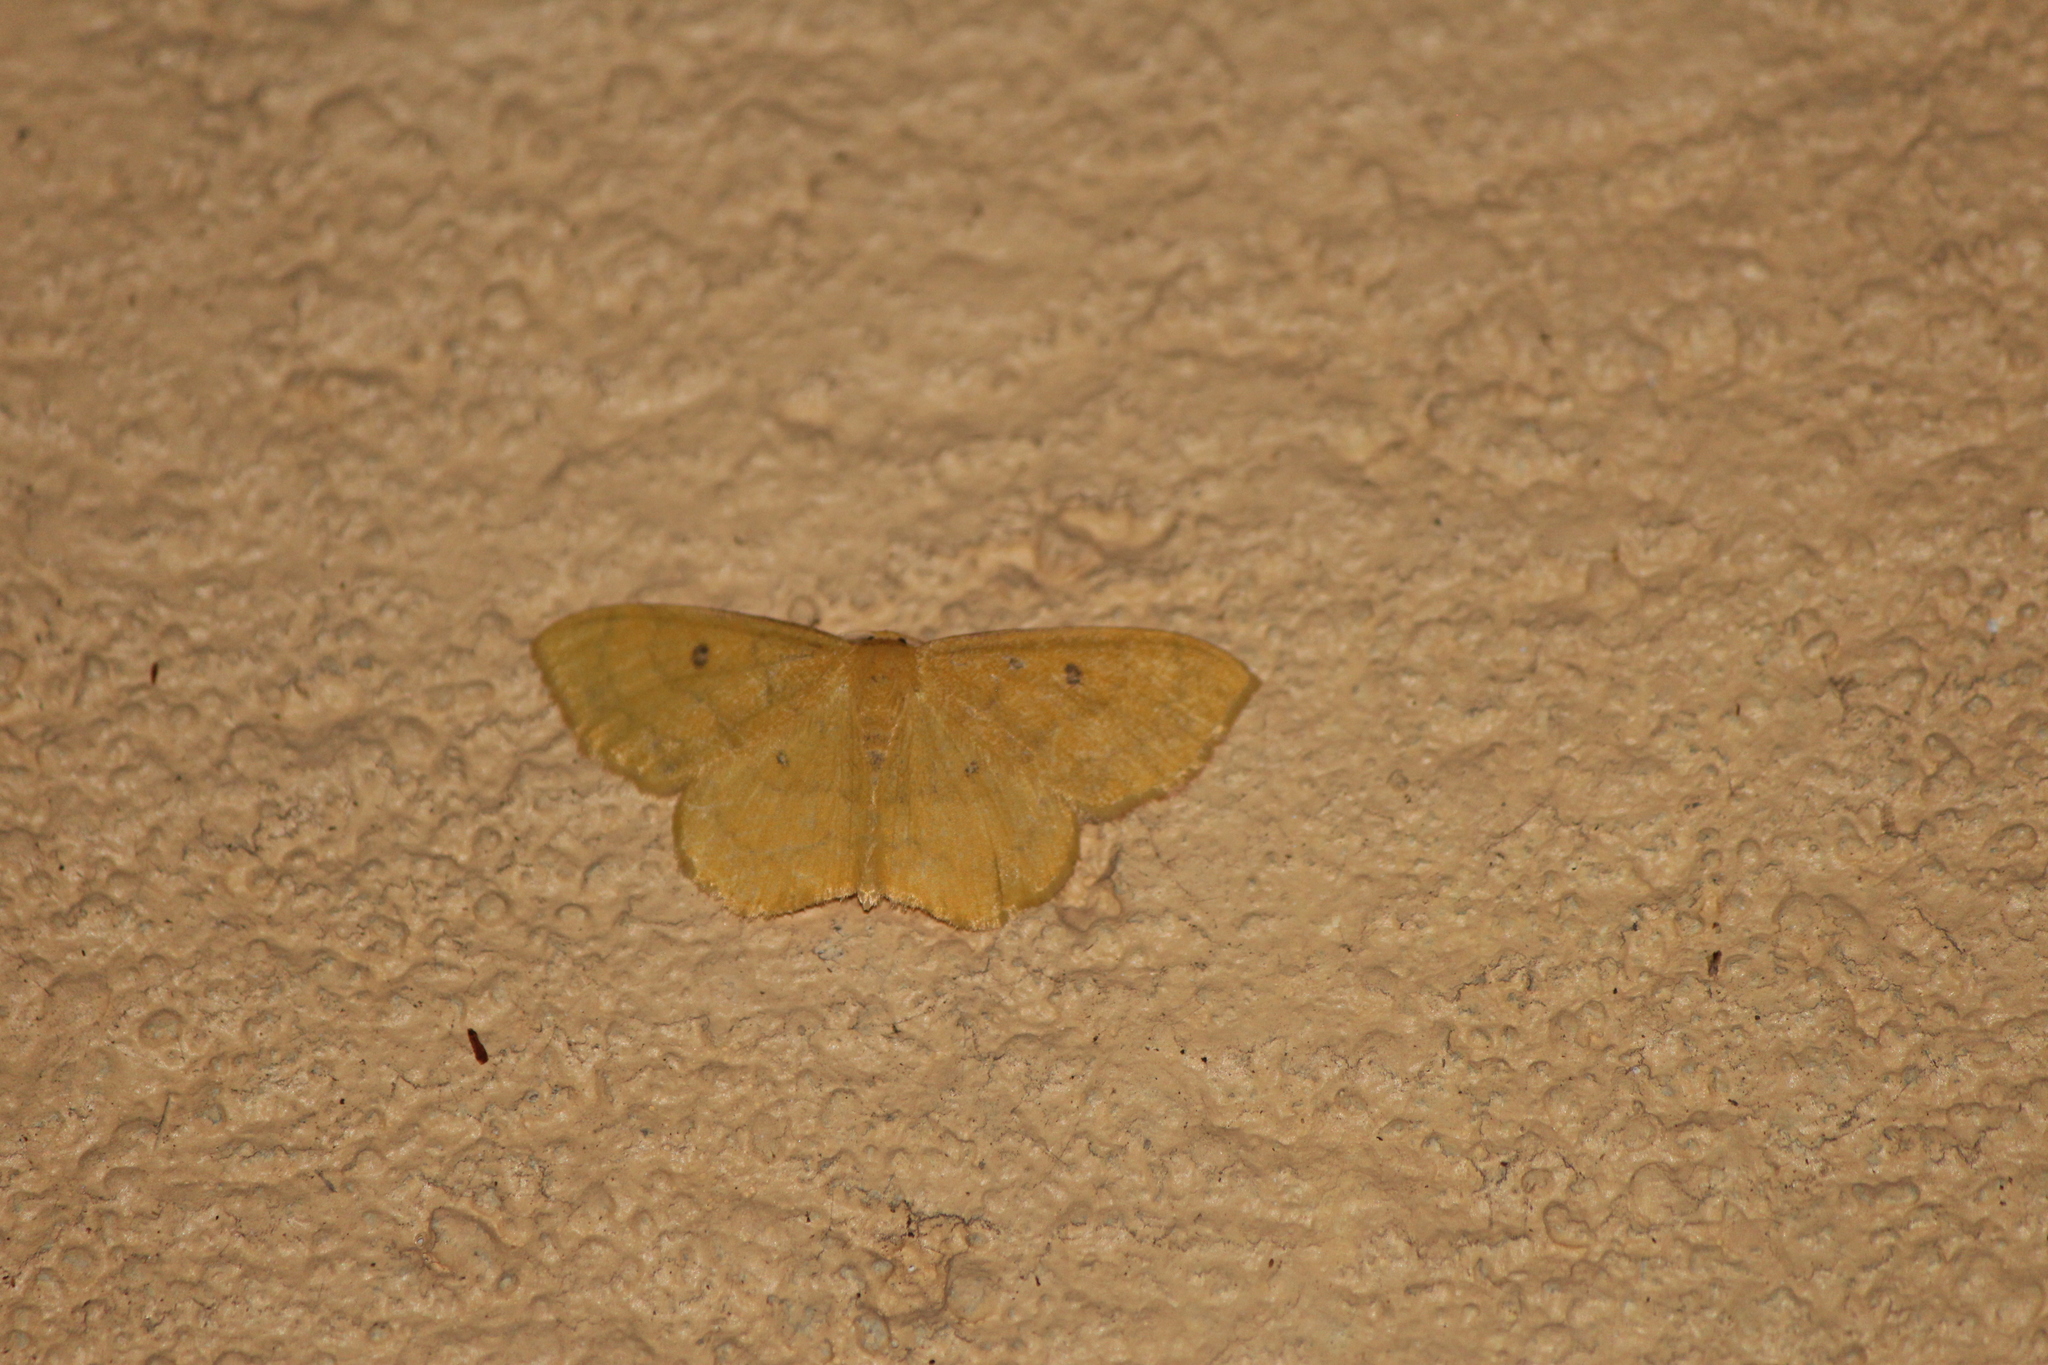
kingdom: Animalia
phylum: Arthropoda
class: Insecta
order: Lepidoptera
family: Geometridae
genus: Semaeopus
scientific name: Semaeopus ella
